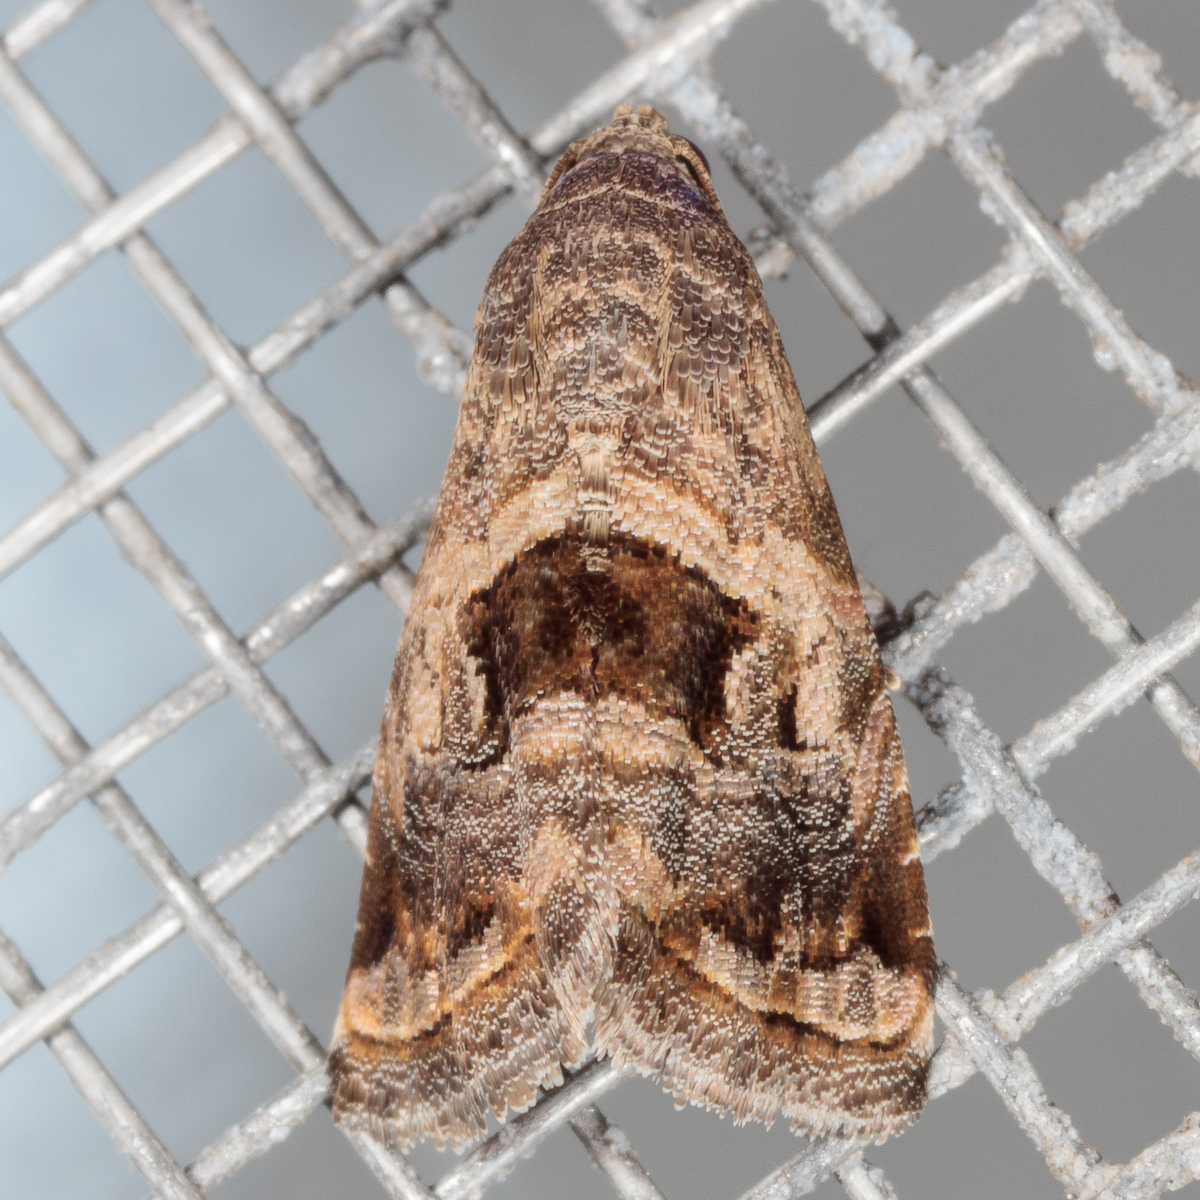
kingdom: Animalia
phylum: Arthropoda
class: Insecta
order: Lepidoptera
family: Noctuidae
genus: Tripudia
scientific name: Tripudia quadrifera
